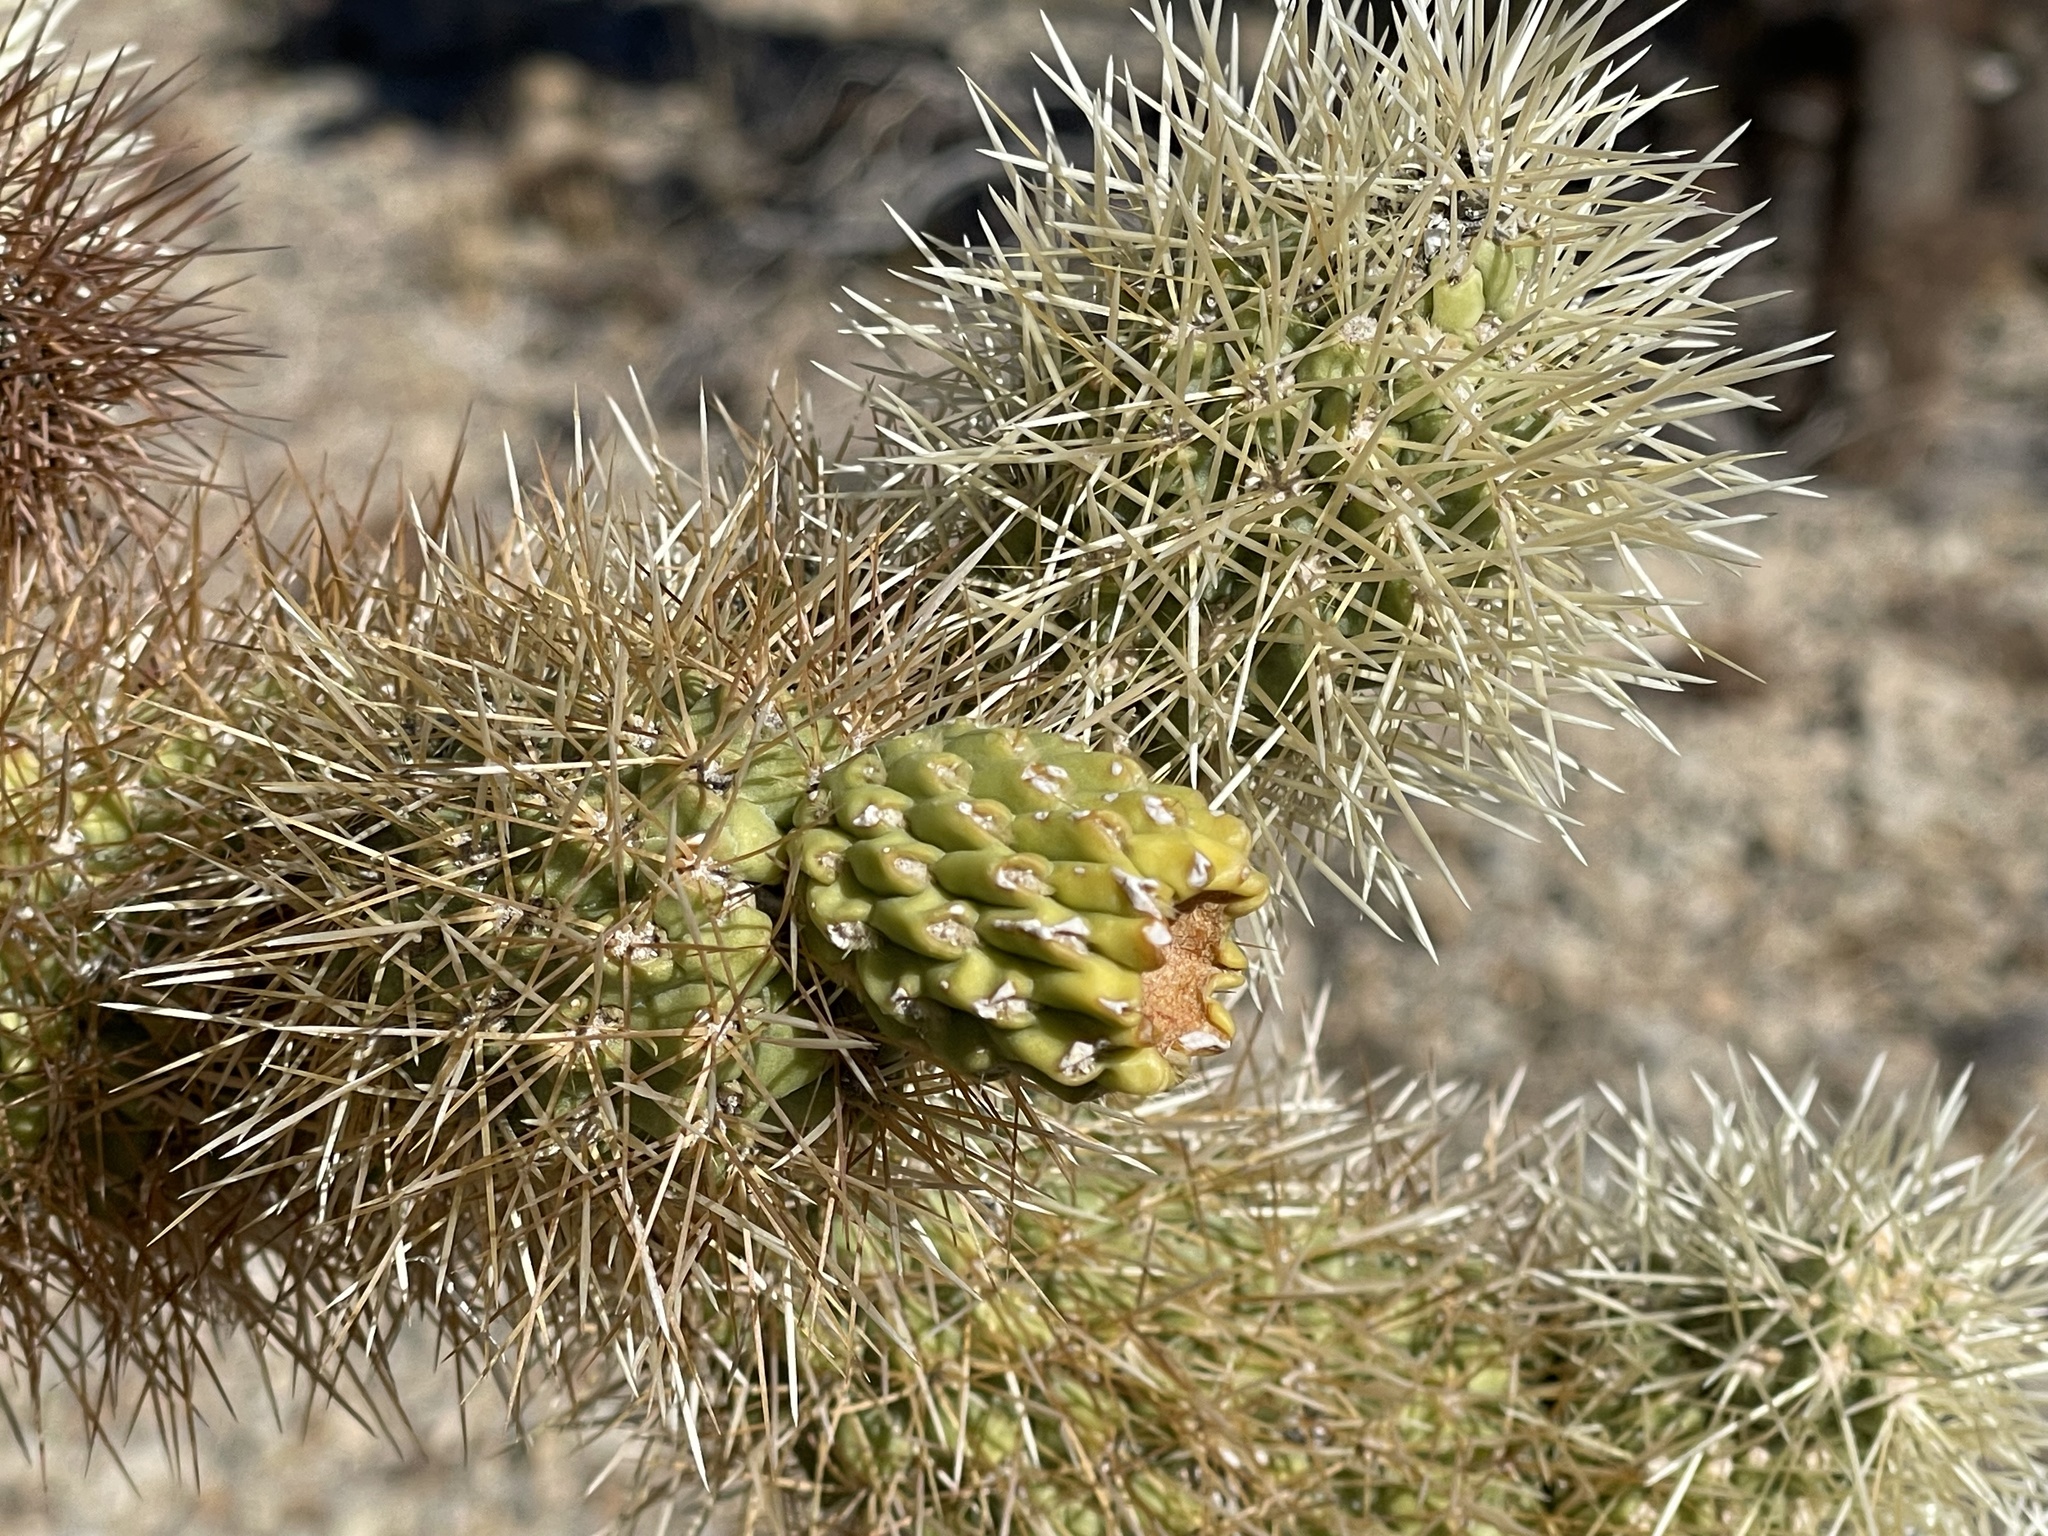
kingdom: Plantae
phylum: Tracheophyta
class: Magnoliopsida
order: Caryophyllales
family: Cactaceae
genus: Cylindropuntia
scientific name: Cylindropuntia fosbergii
